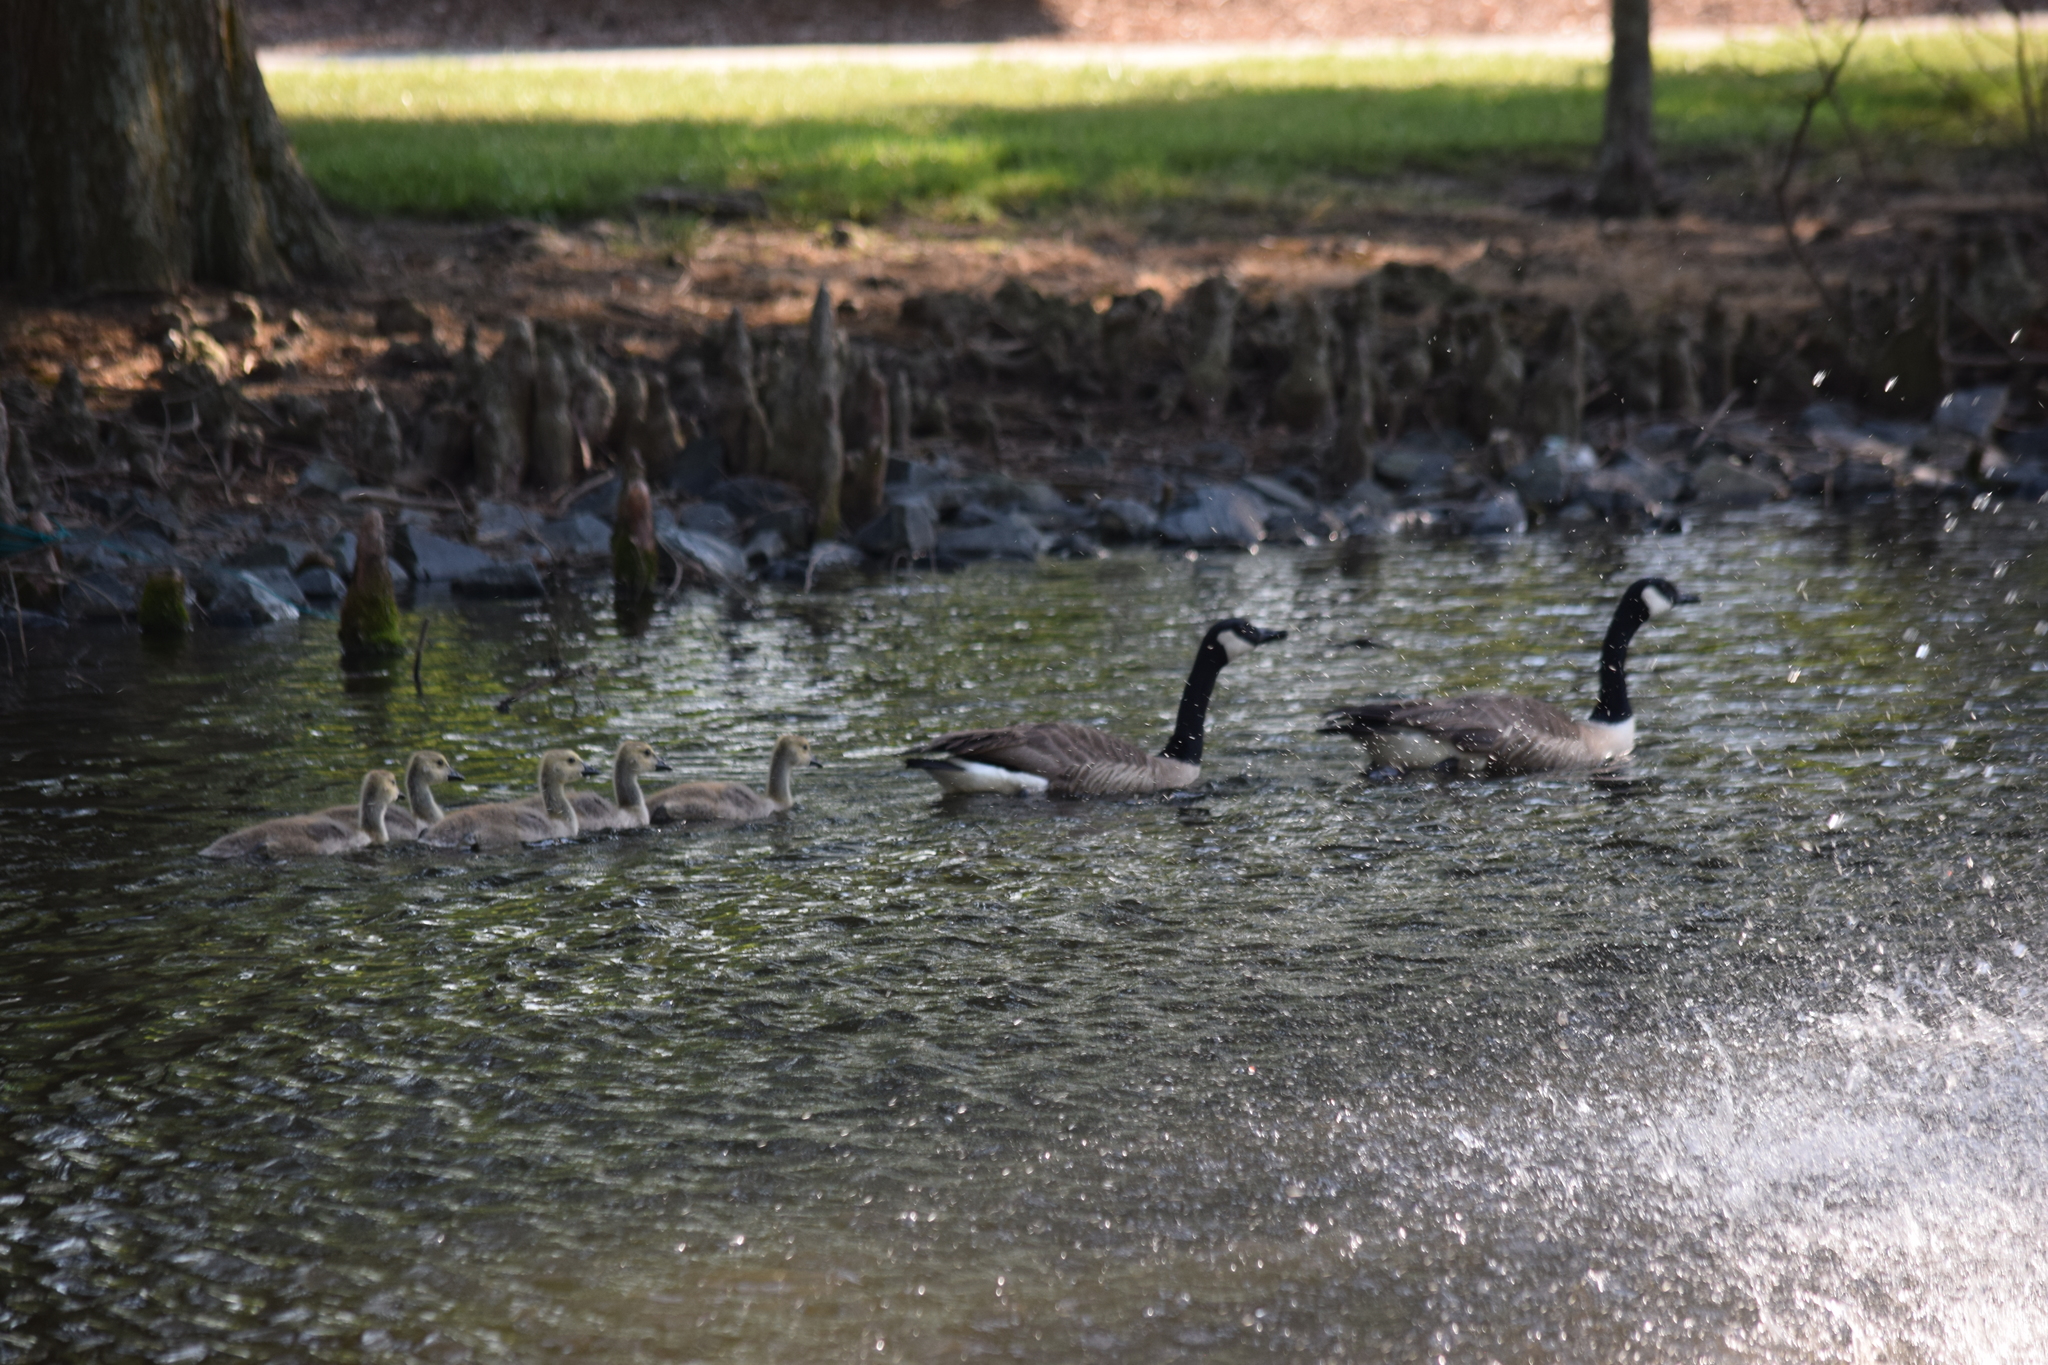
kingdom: Animalia
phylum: Chordata
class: Aves
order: Anseriformes
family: Anatidae
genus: Branta
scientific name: Branta canadensis
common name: Canada goose
